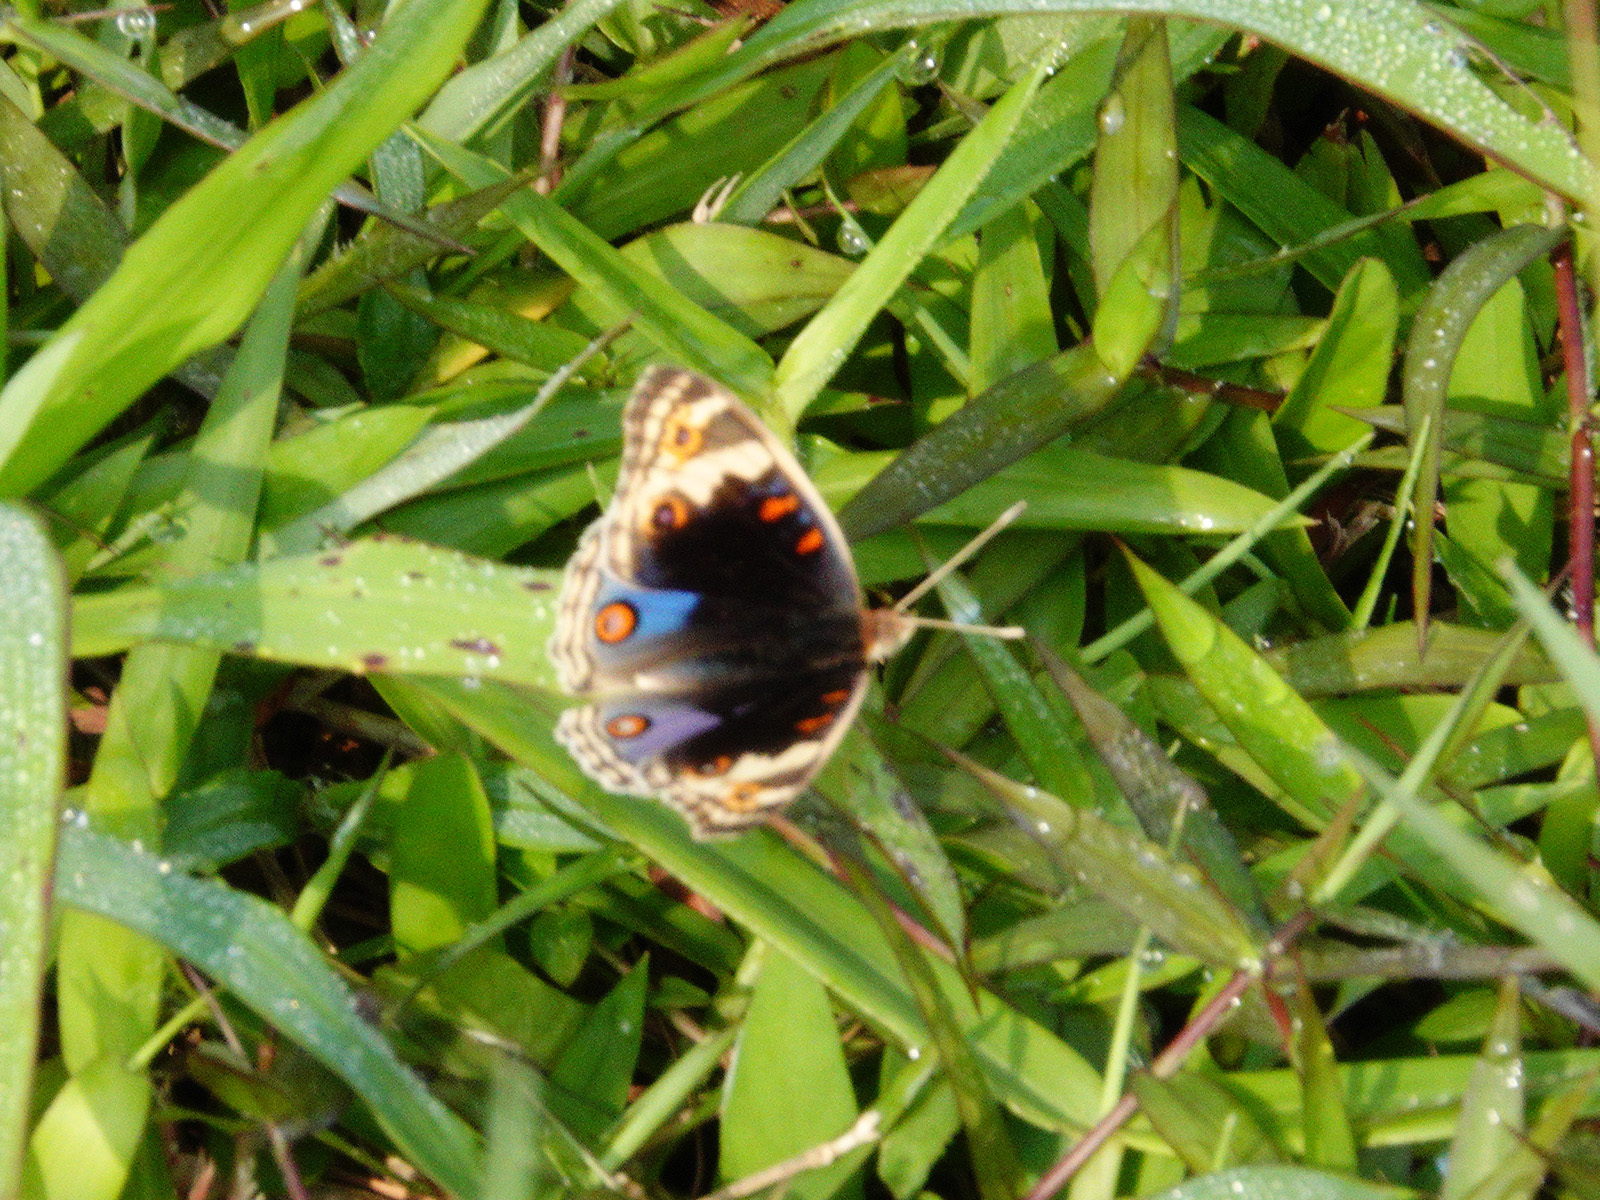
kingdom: Animalia
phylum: Arthropoda
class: Insecta
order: Lepidoptera
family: Nymphalidae
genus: Junonia
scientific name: Junonia orithya
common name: Blue pansy
